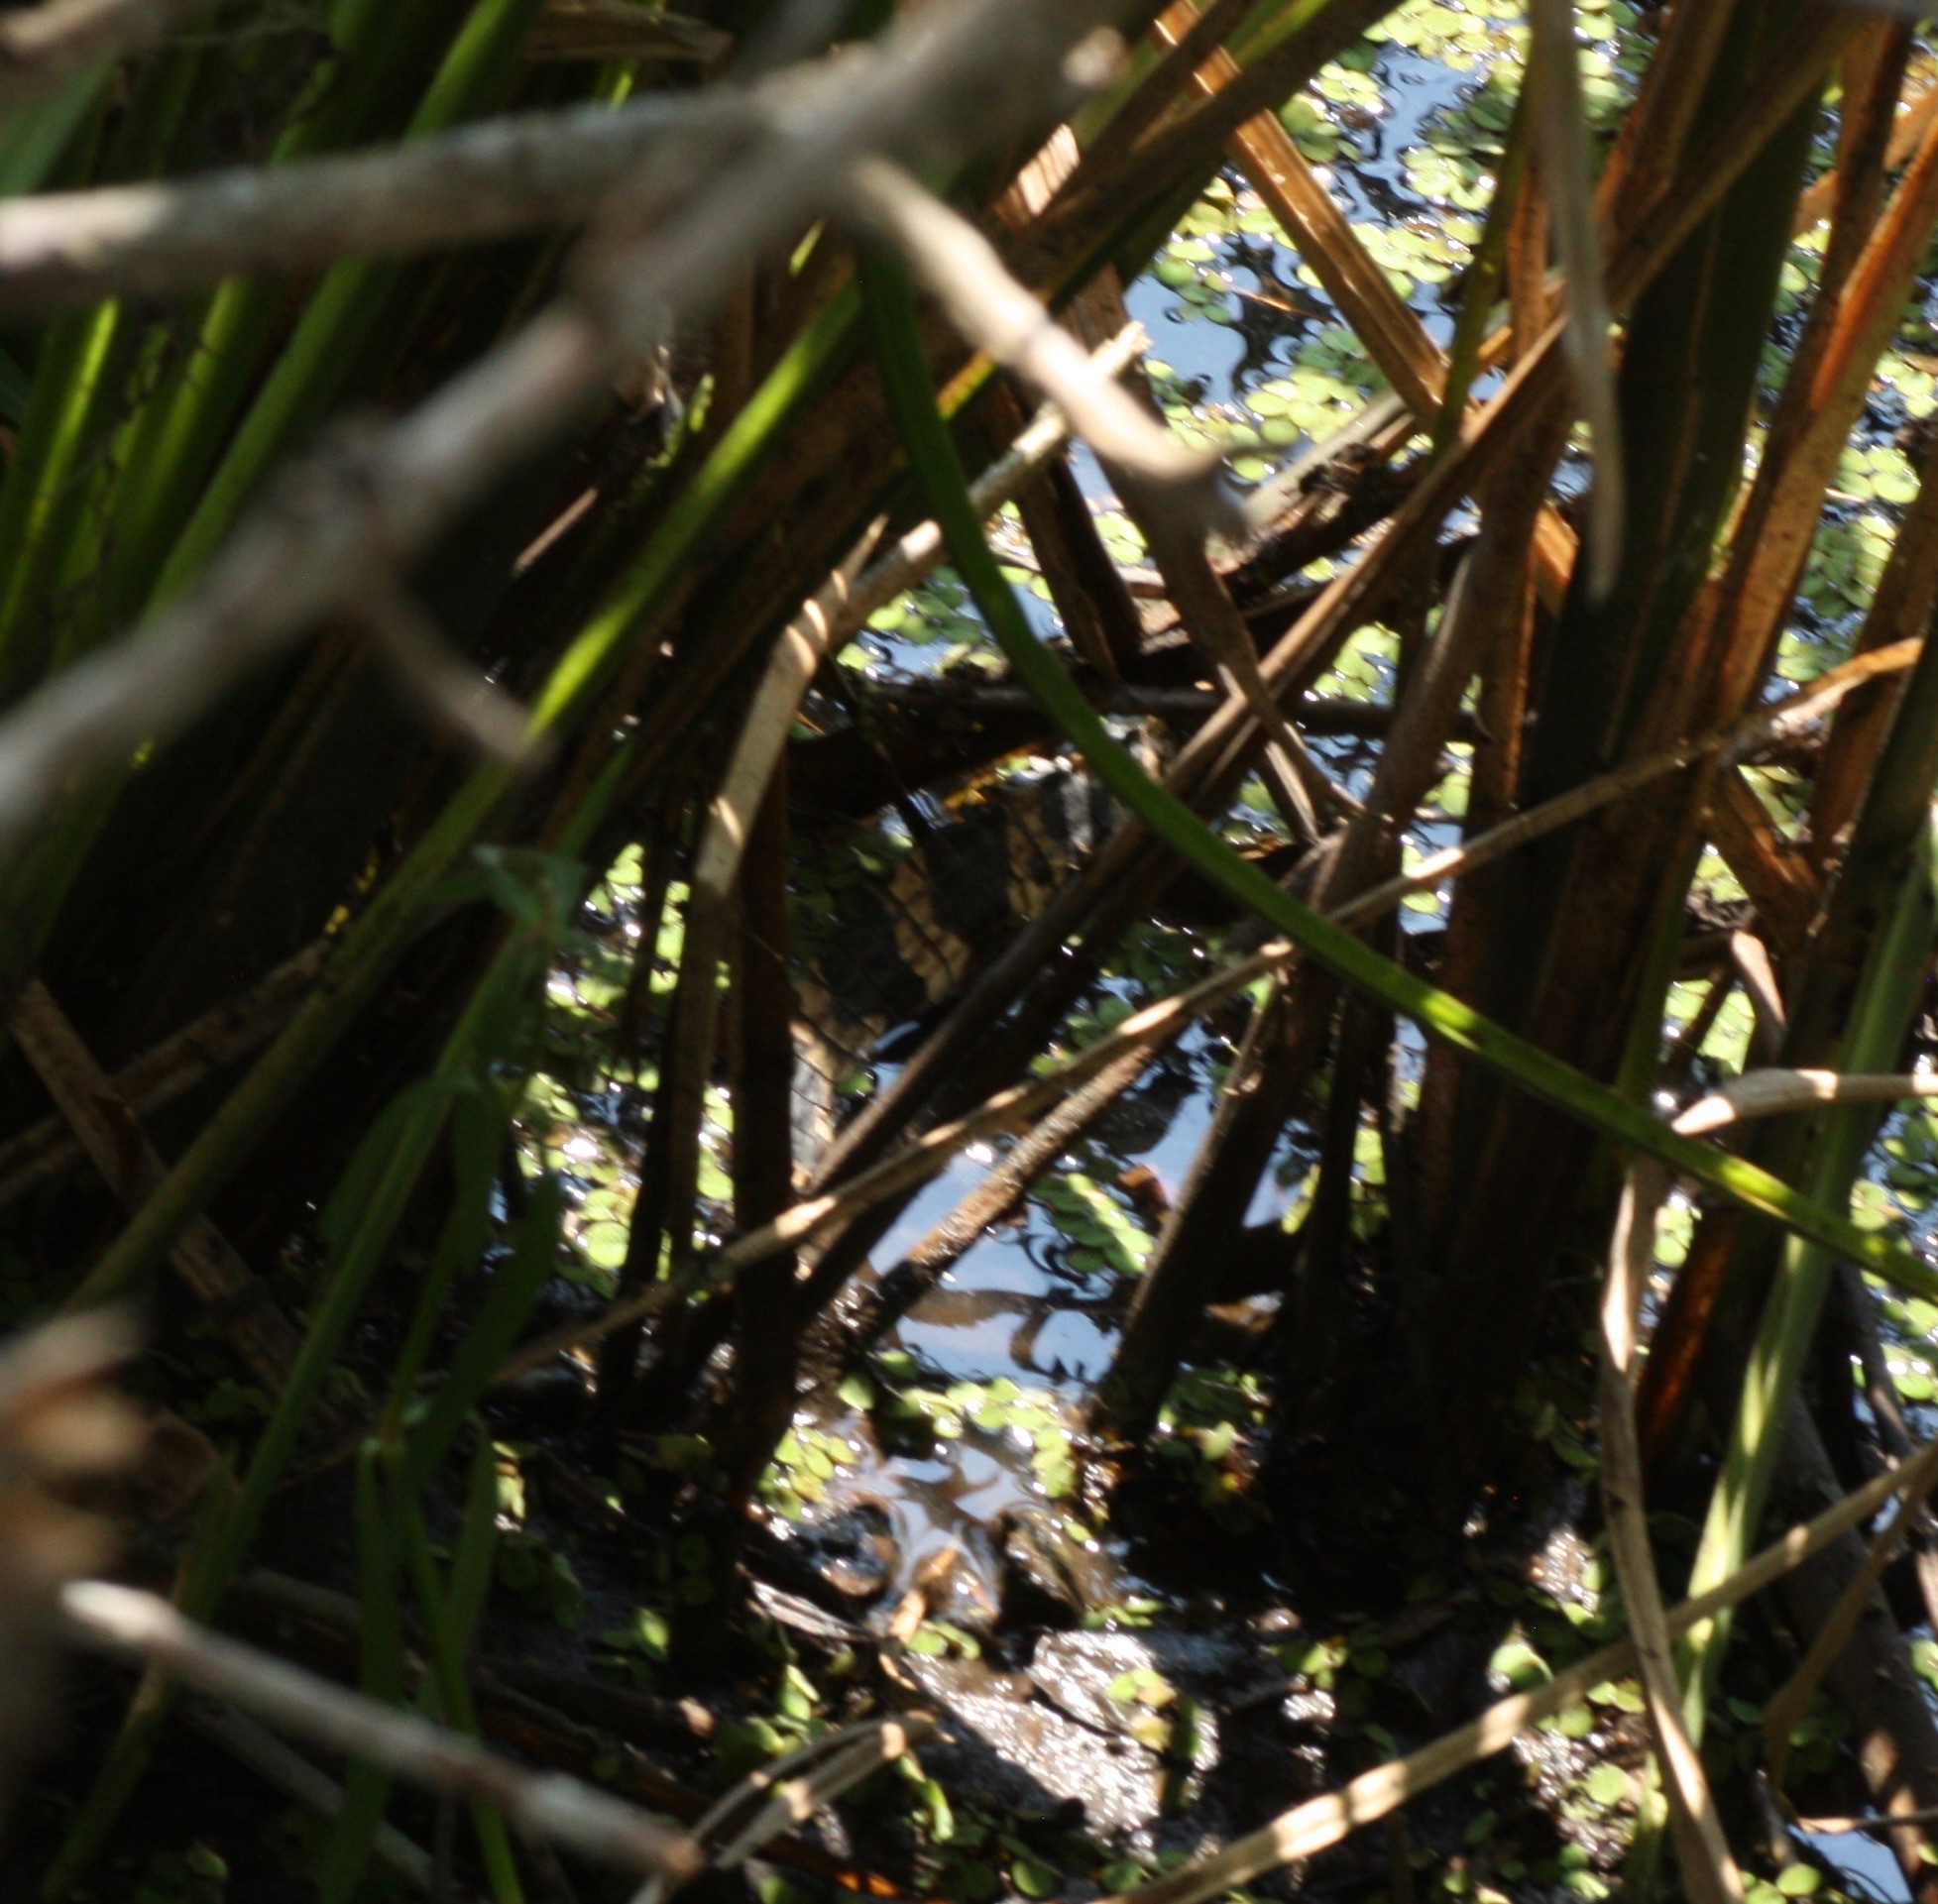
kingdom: Animalia
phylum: Chordata
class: Crocodylia
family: Alligatoridae
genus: Alligator
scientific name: Alligator mississippiensis
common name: American alligator
